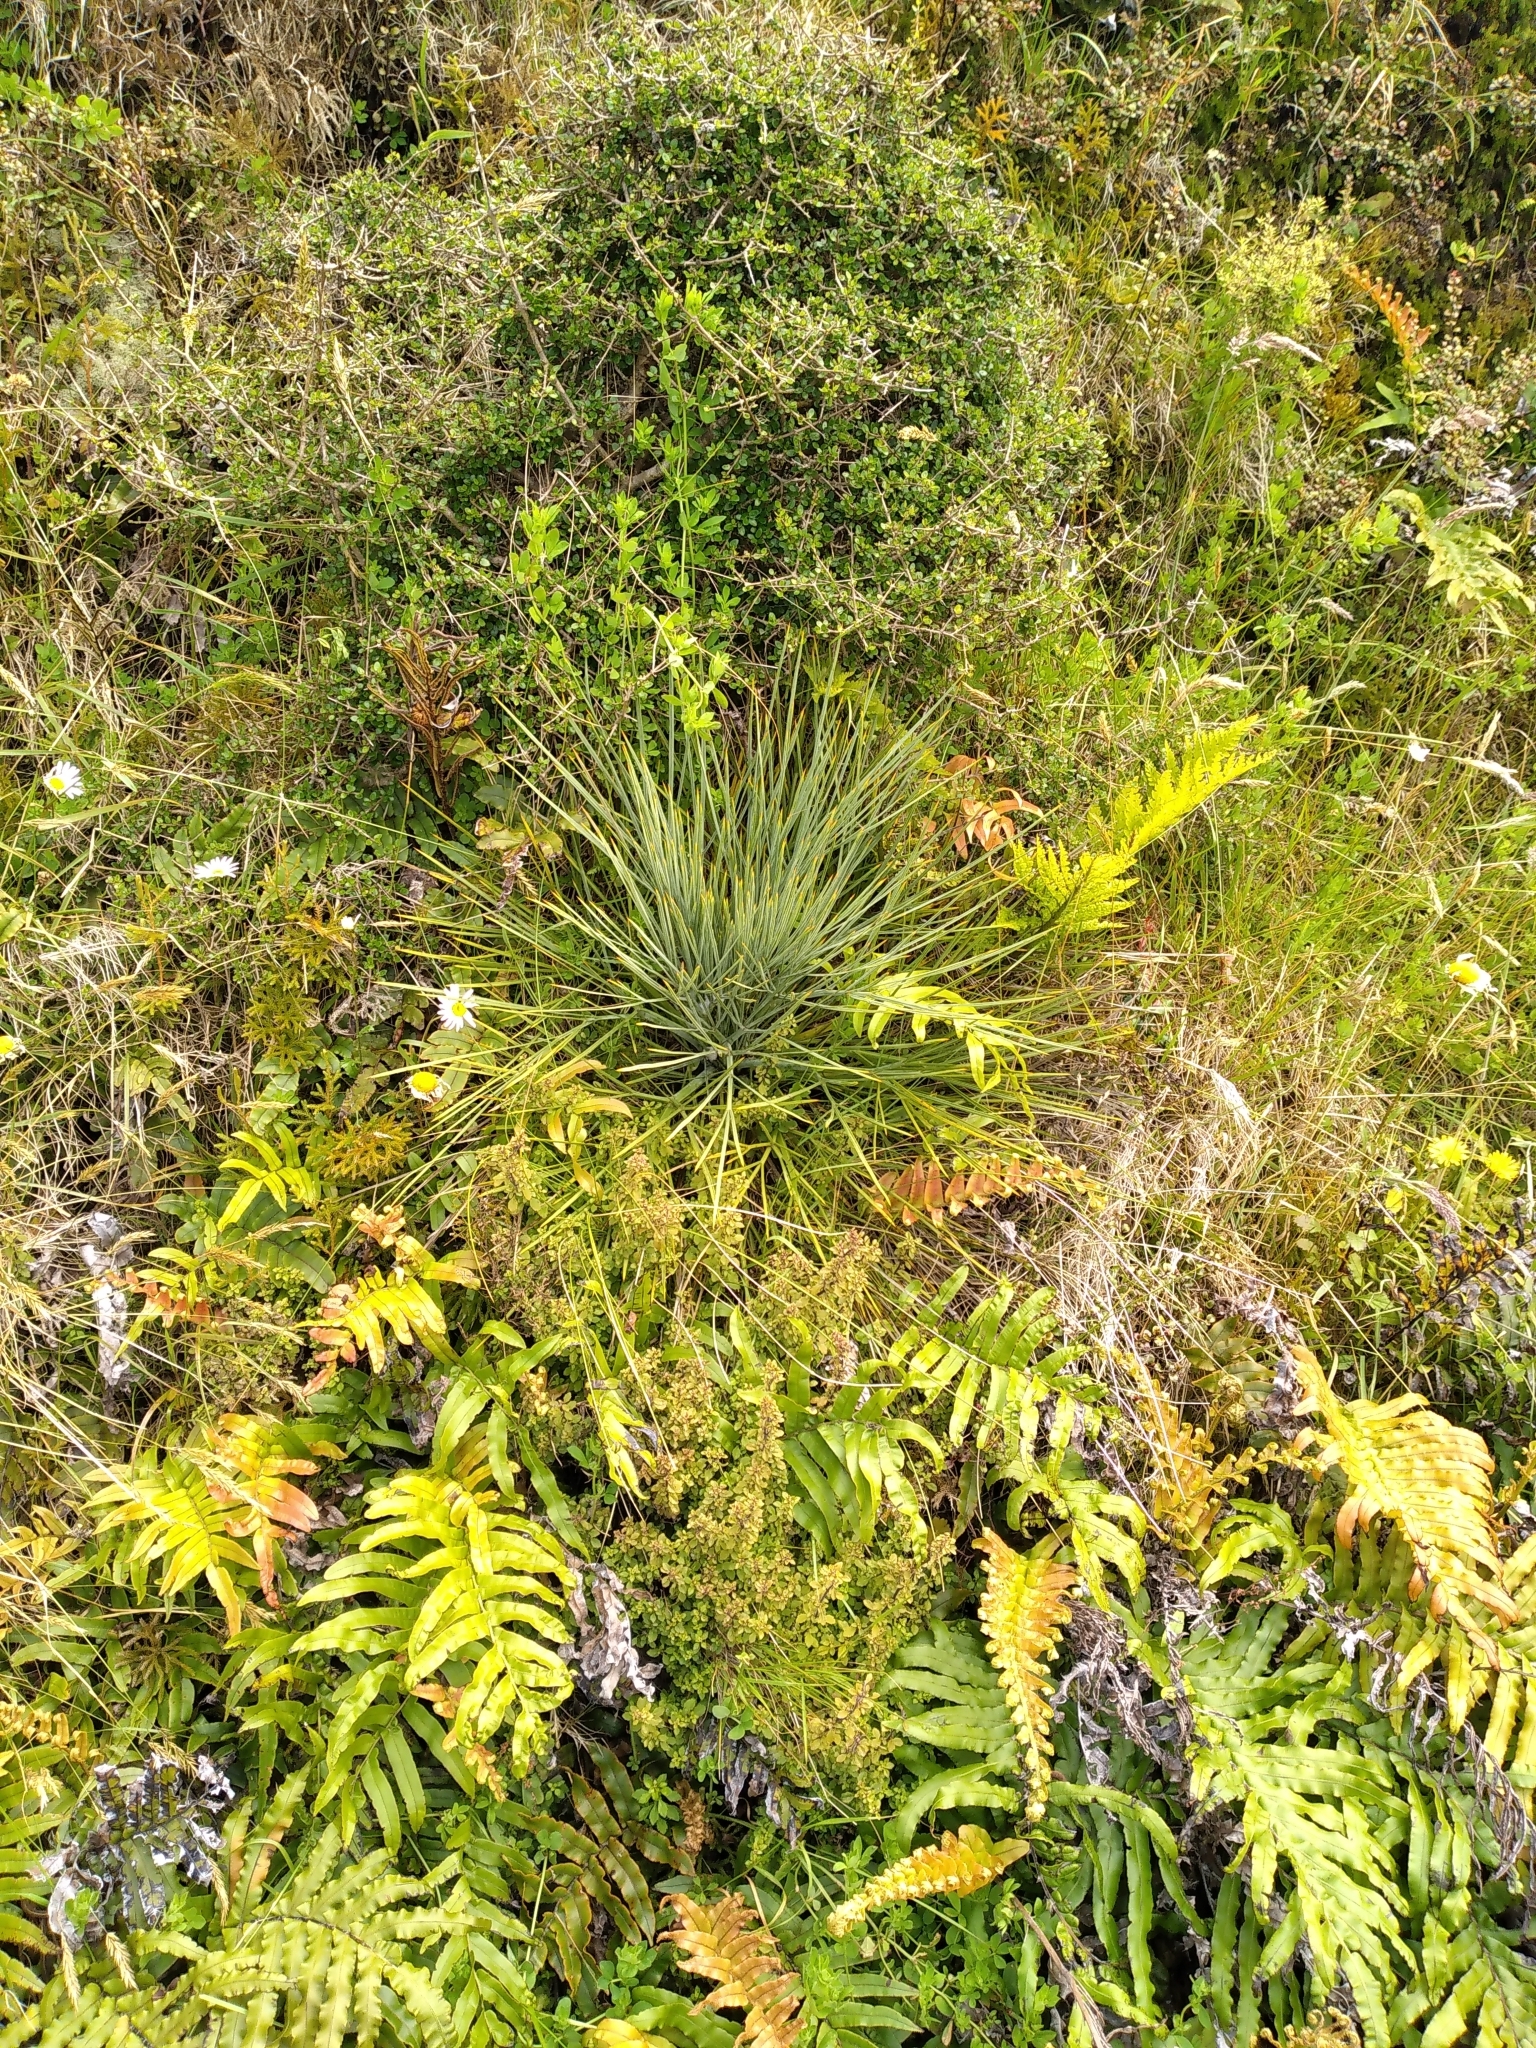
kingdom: Plantae
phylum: Tracheophyta
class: Magnoliopsida
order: Apiales
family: Apiaceae
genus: Aciphylla
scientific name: Aciphylla squarrosa
